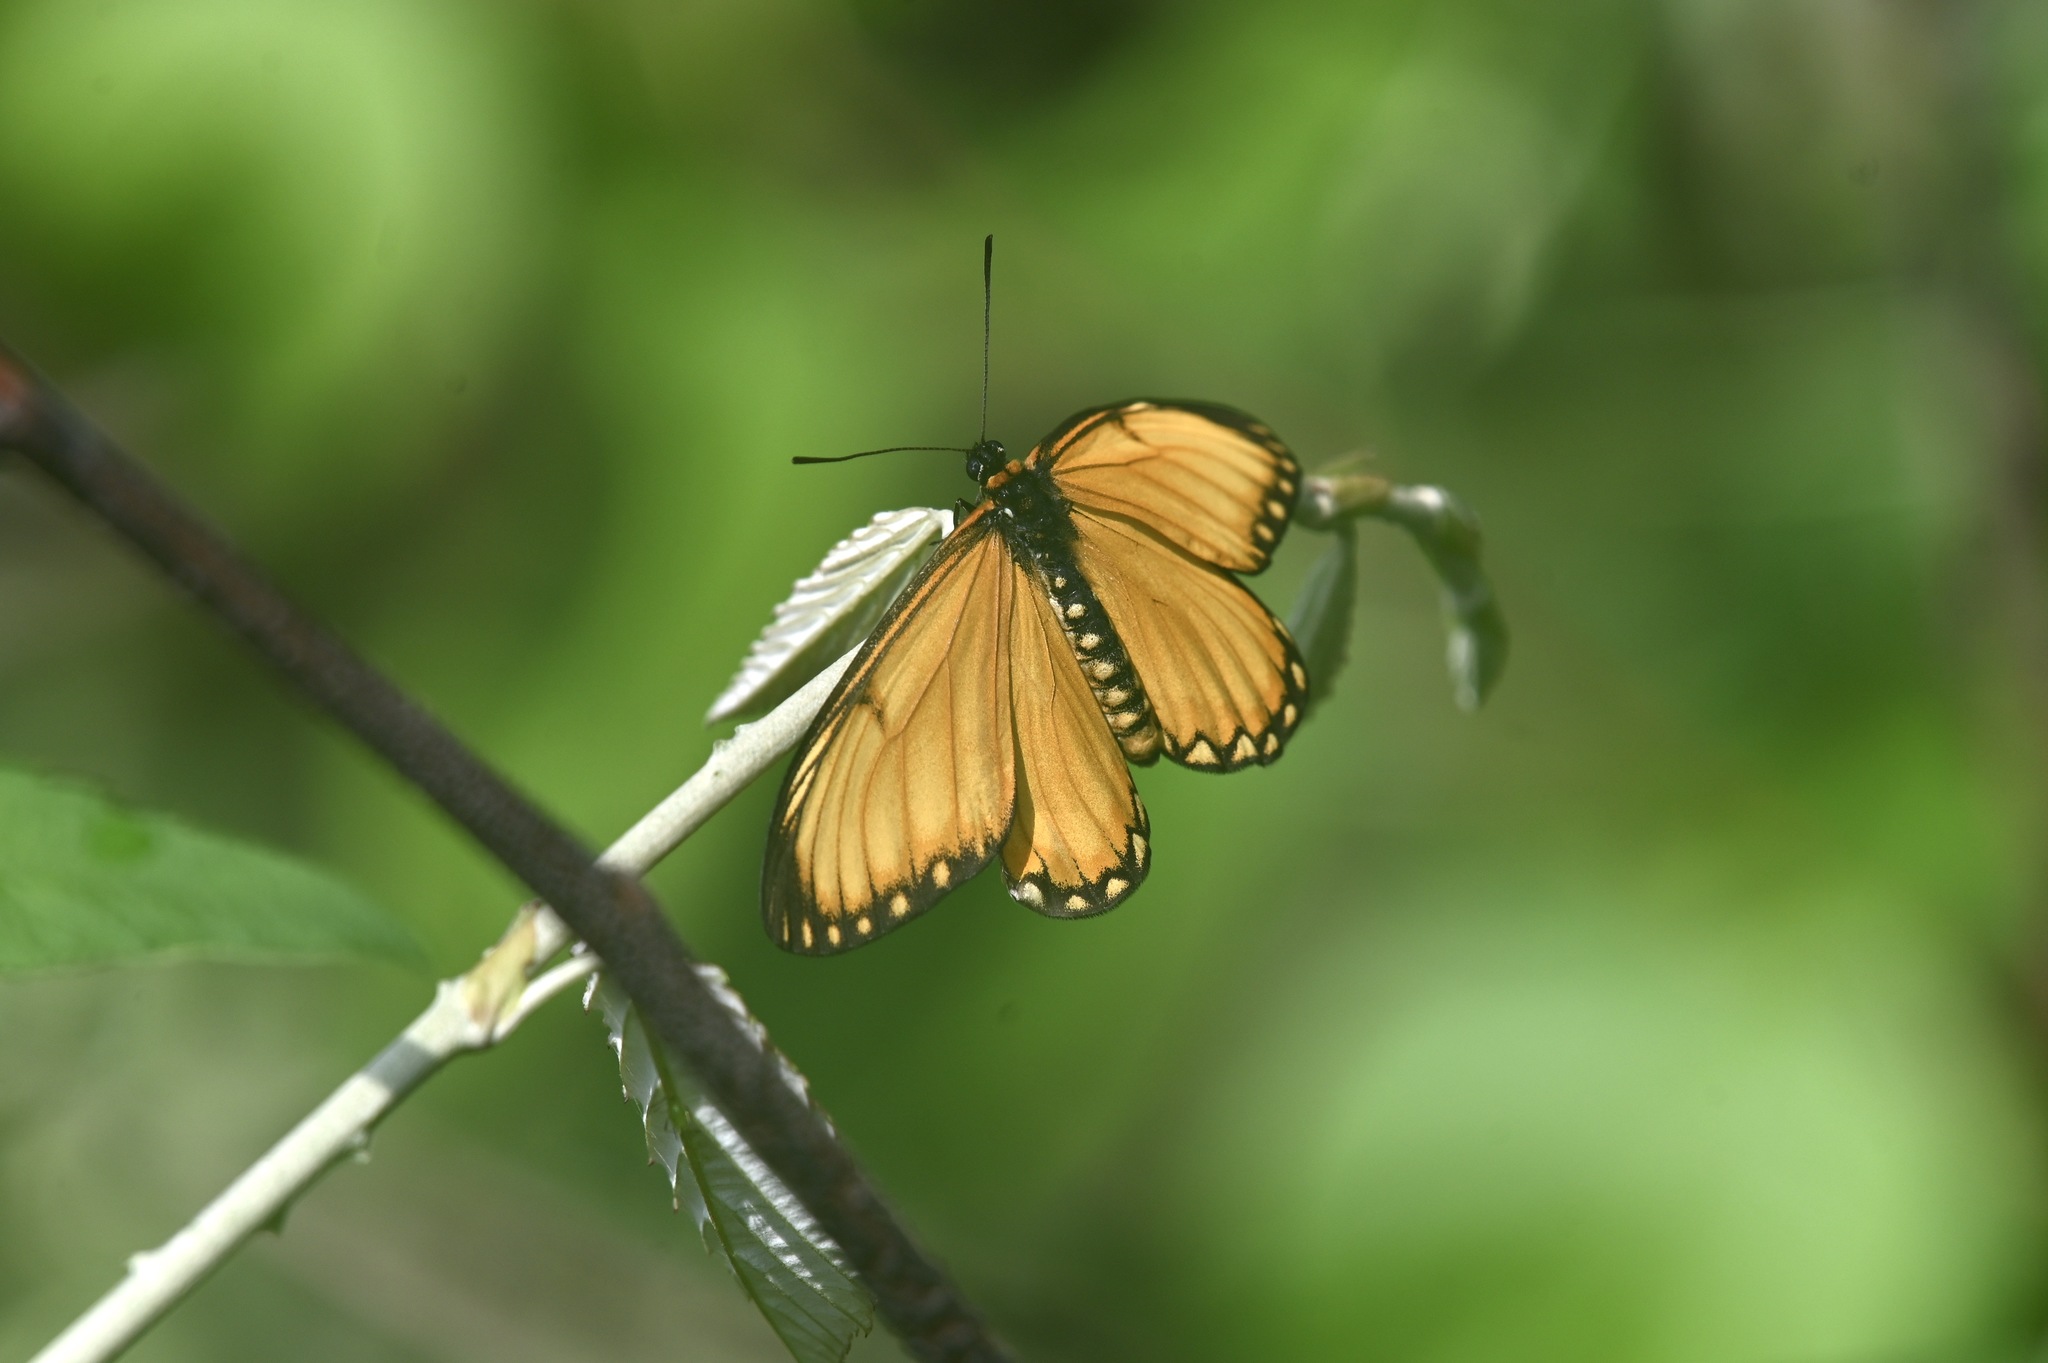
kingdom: Animalia
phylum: Arthropoda
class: Insecta
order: Lepidoptera
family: Nymphalidae
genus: Acraea
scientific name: Acraea Telchinia issoria
